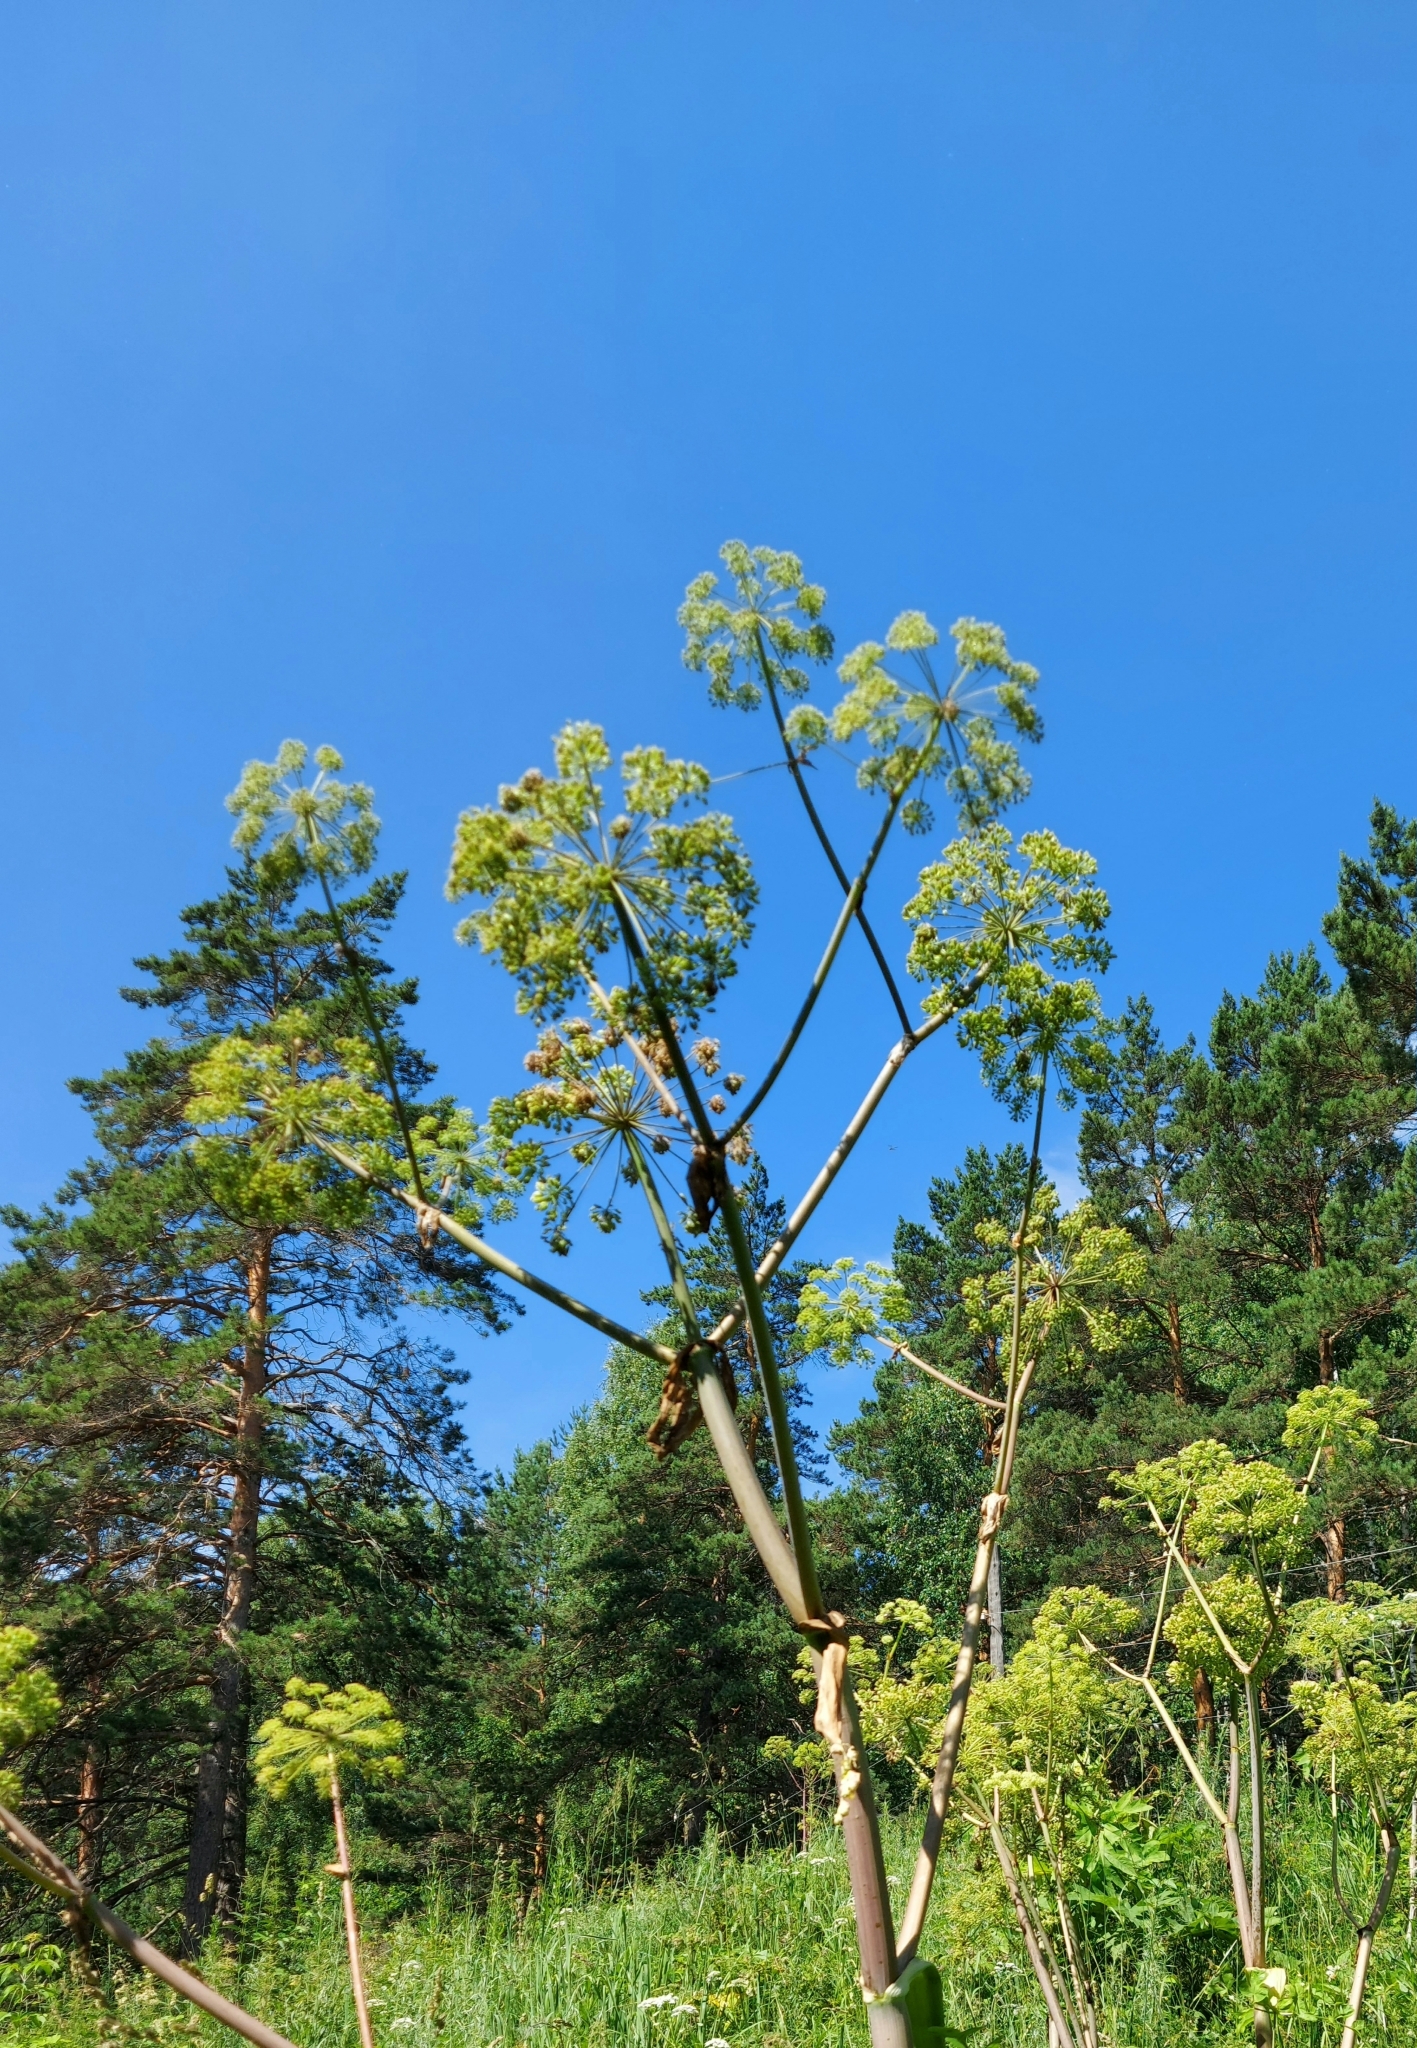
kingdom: Plantae
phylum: Tracheophyta
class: Magnoliopsida
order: Apiales
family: Apiaceae
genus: Angelica
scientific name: Angelica decurrens
